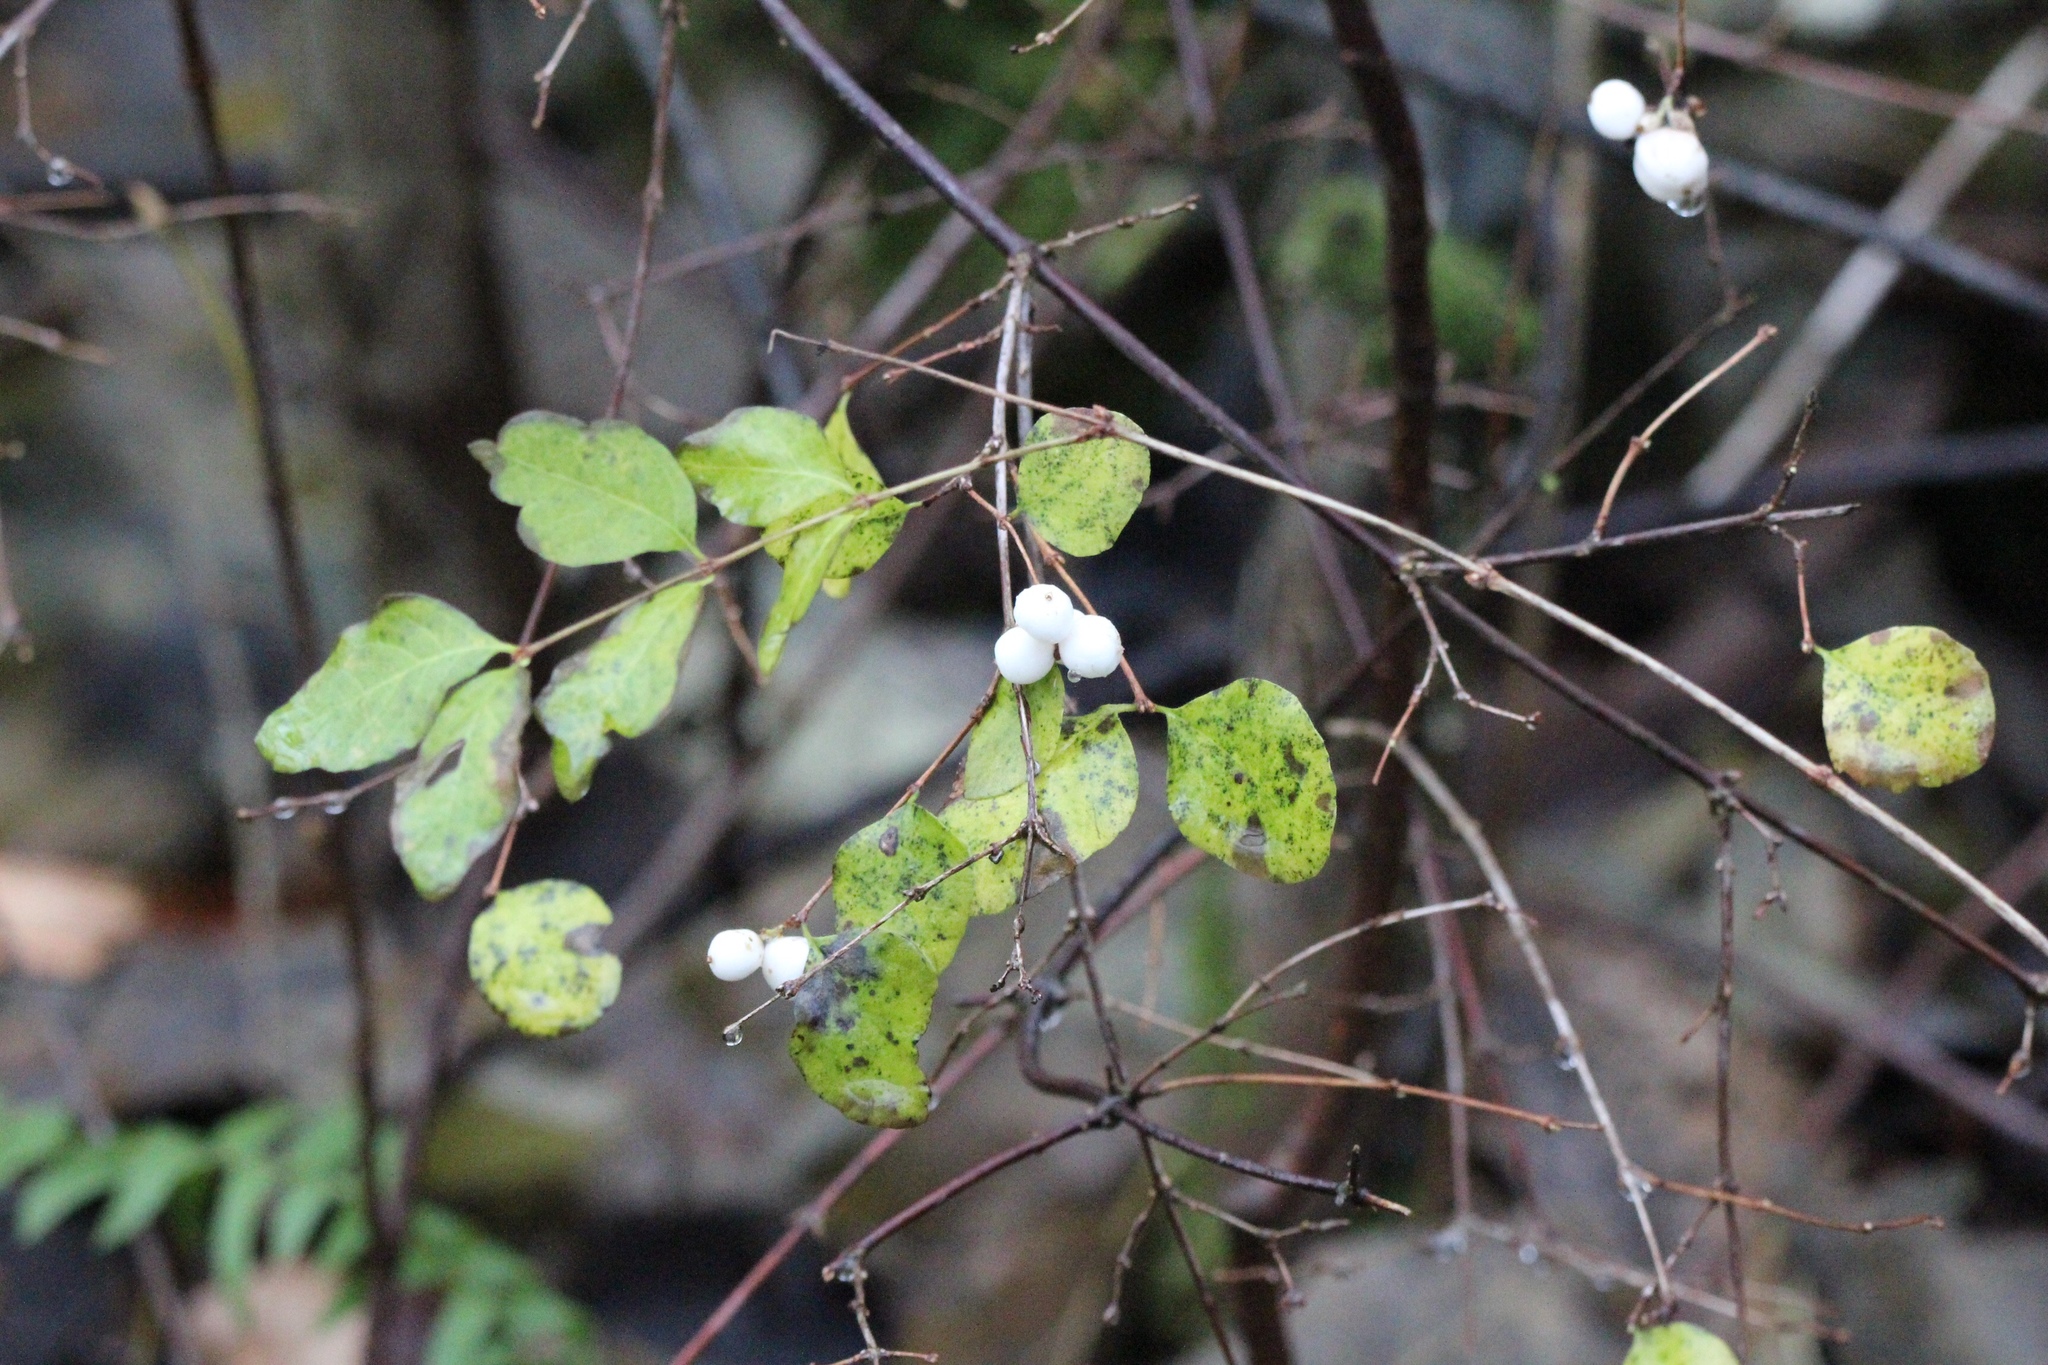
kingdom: Plantae
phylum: Tracheophyta
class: Magnoliopsida
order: Dipsacales
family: Caprifoliaceae
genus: Symphoricarpos
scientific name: Symphoricarpos albus
